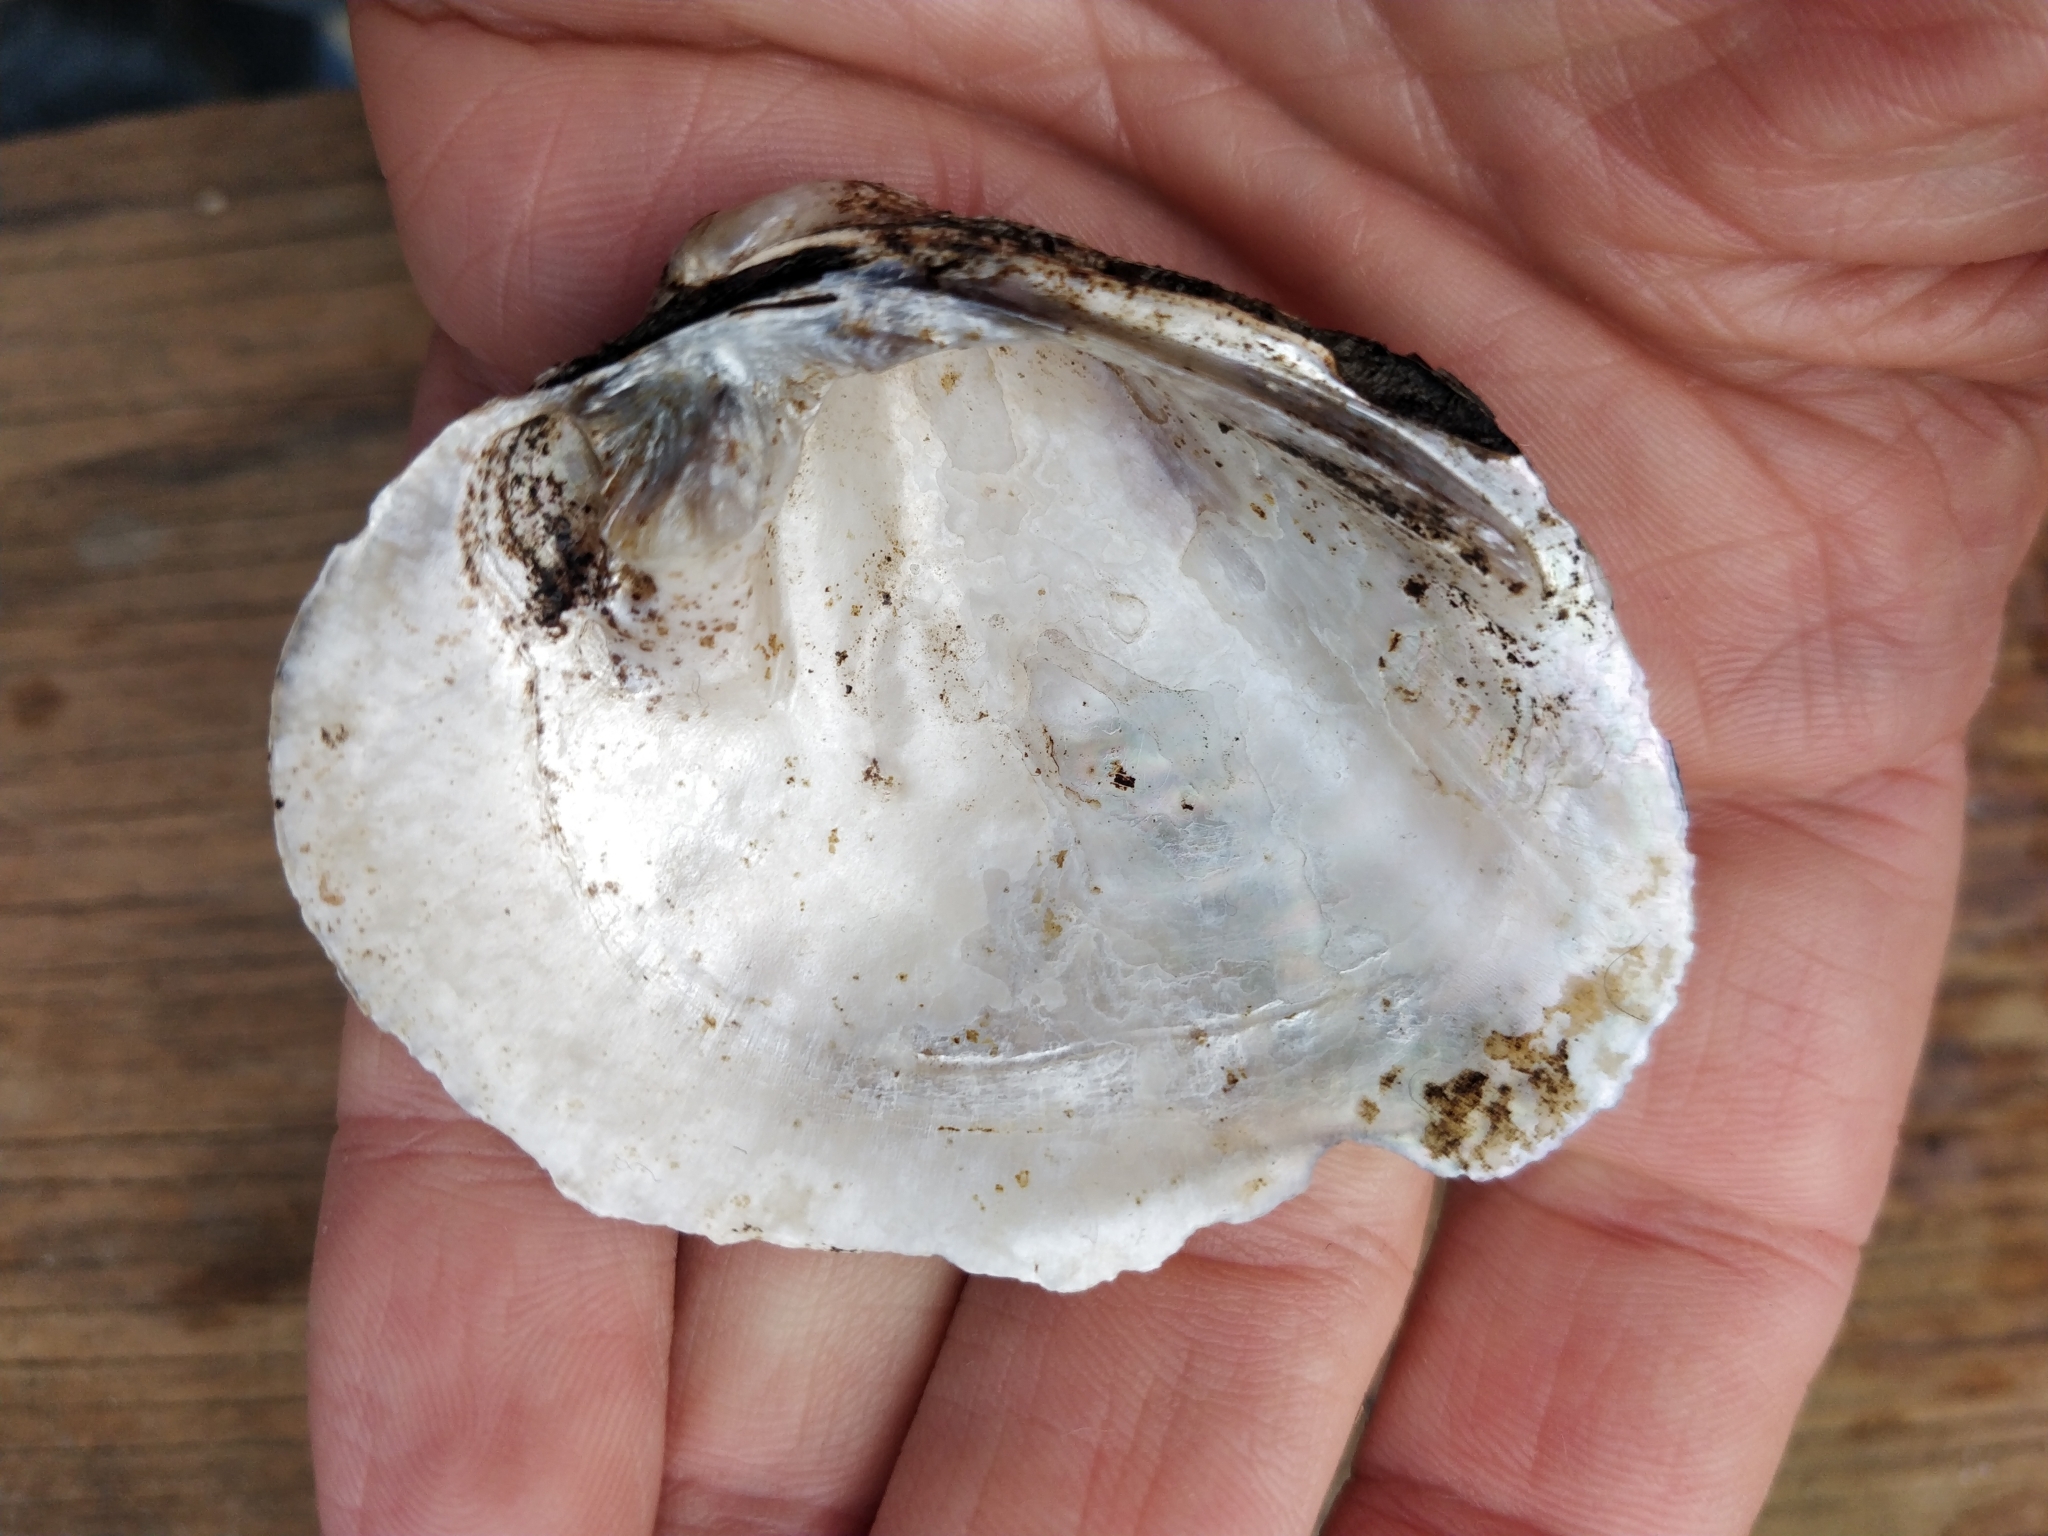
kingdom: Animalia
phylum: Mollusca
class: Bivalvia
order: Unionida
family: Unionidae
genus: Quadrula
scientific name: Quadrula quadrula
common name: Mapleleaf
